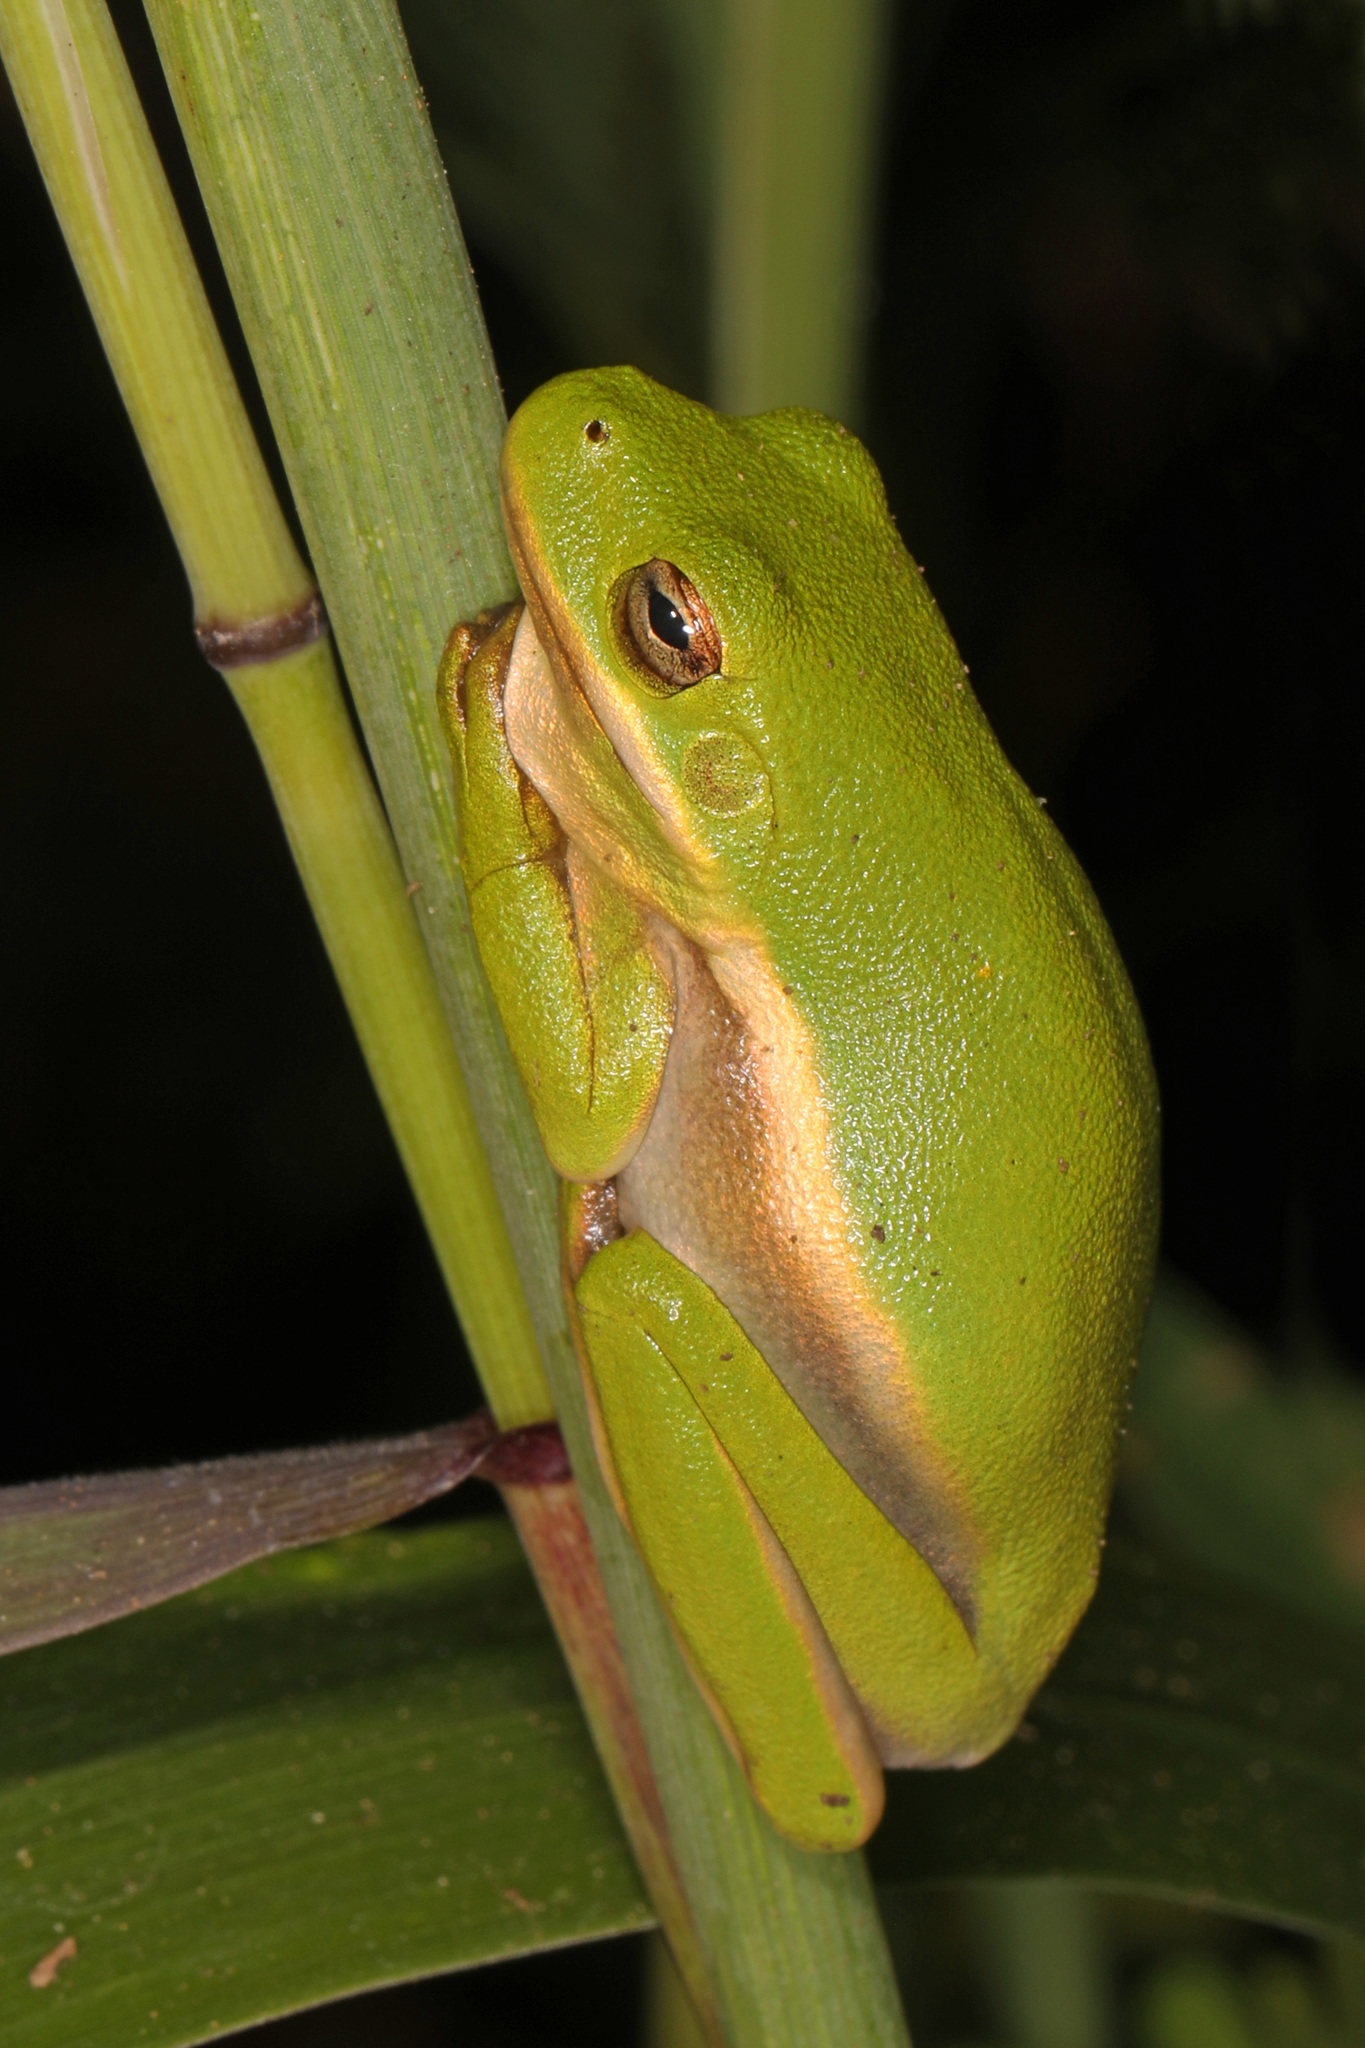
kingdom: Animalia
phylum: Chordata
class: Amphibia
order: Anura
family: Hylidae
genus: Dryophytes
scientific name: Dryophytes cinereus
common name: Green treefrog
